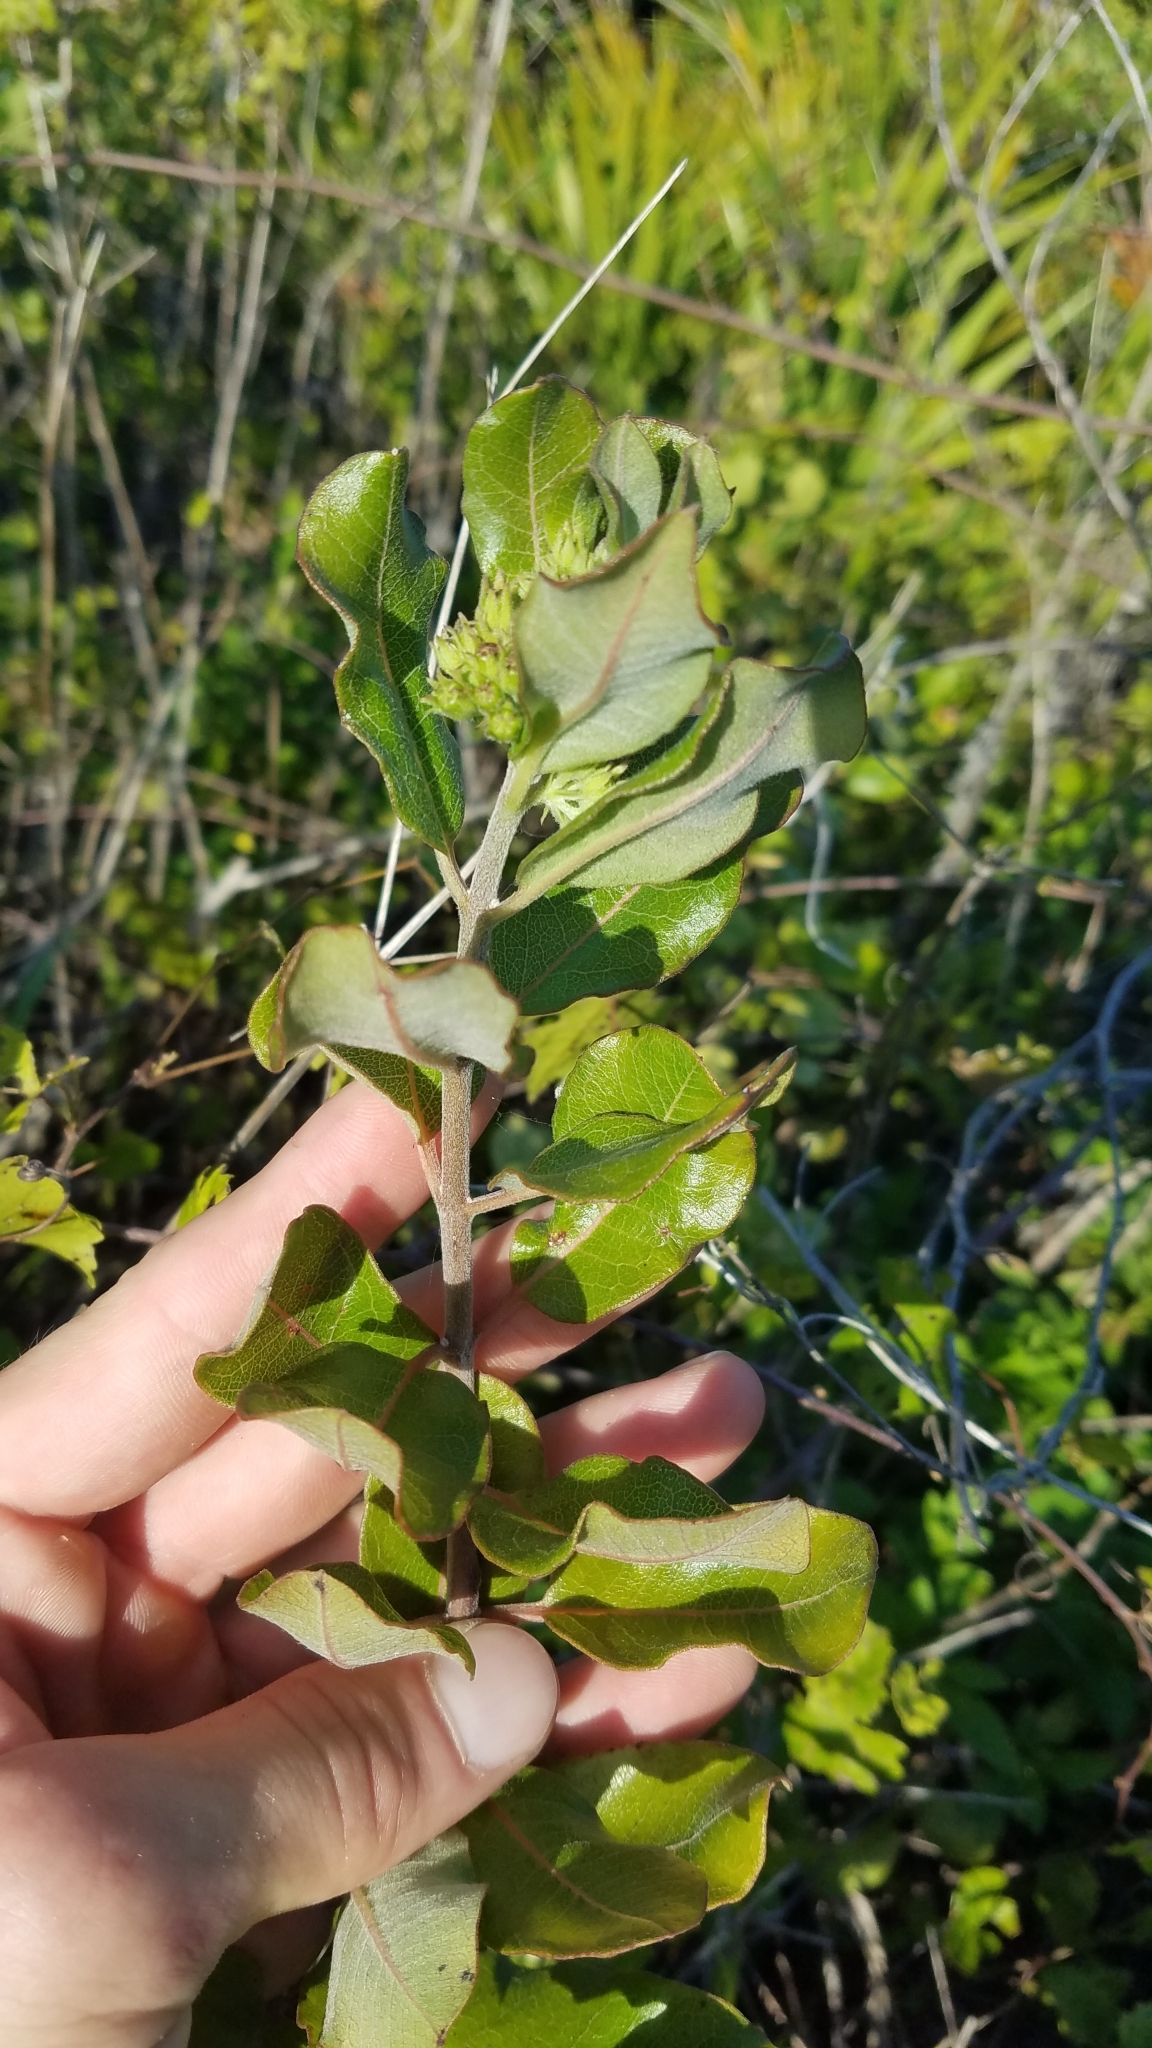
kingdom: Plantae
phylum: Tracheophyta
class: Magnoliopsida
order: Gentianales
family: Apocynaceae
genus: Asclepias
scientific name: Asclepias tomentosa
